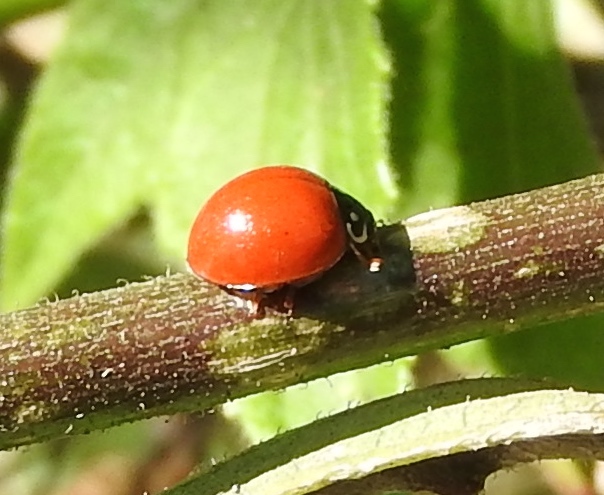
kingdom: Animalia
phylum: Arthropoda
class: Insecta
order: Coleoptera
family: Coccinellidae
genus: Cycloneda
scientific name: Cycloneda sanguinea
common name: Ladybird beetle
